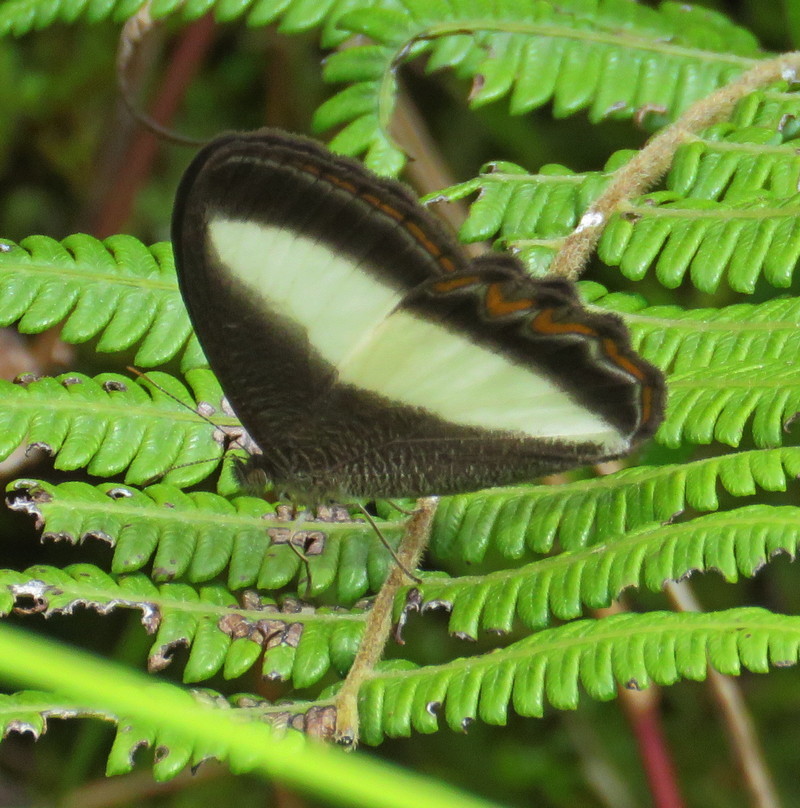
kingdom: Animalia
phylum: Arthropoda
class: Insecta
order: Lepidoptera
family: Nymphalidae
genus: Oressinoma
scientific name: Oressinoma typhla
